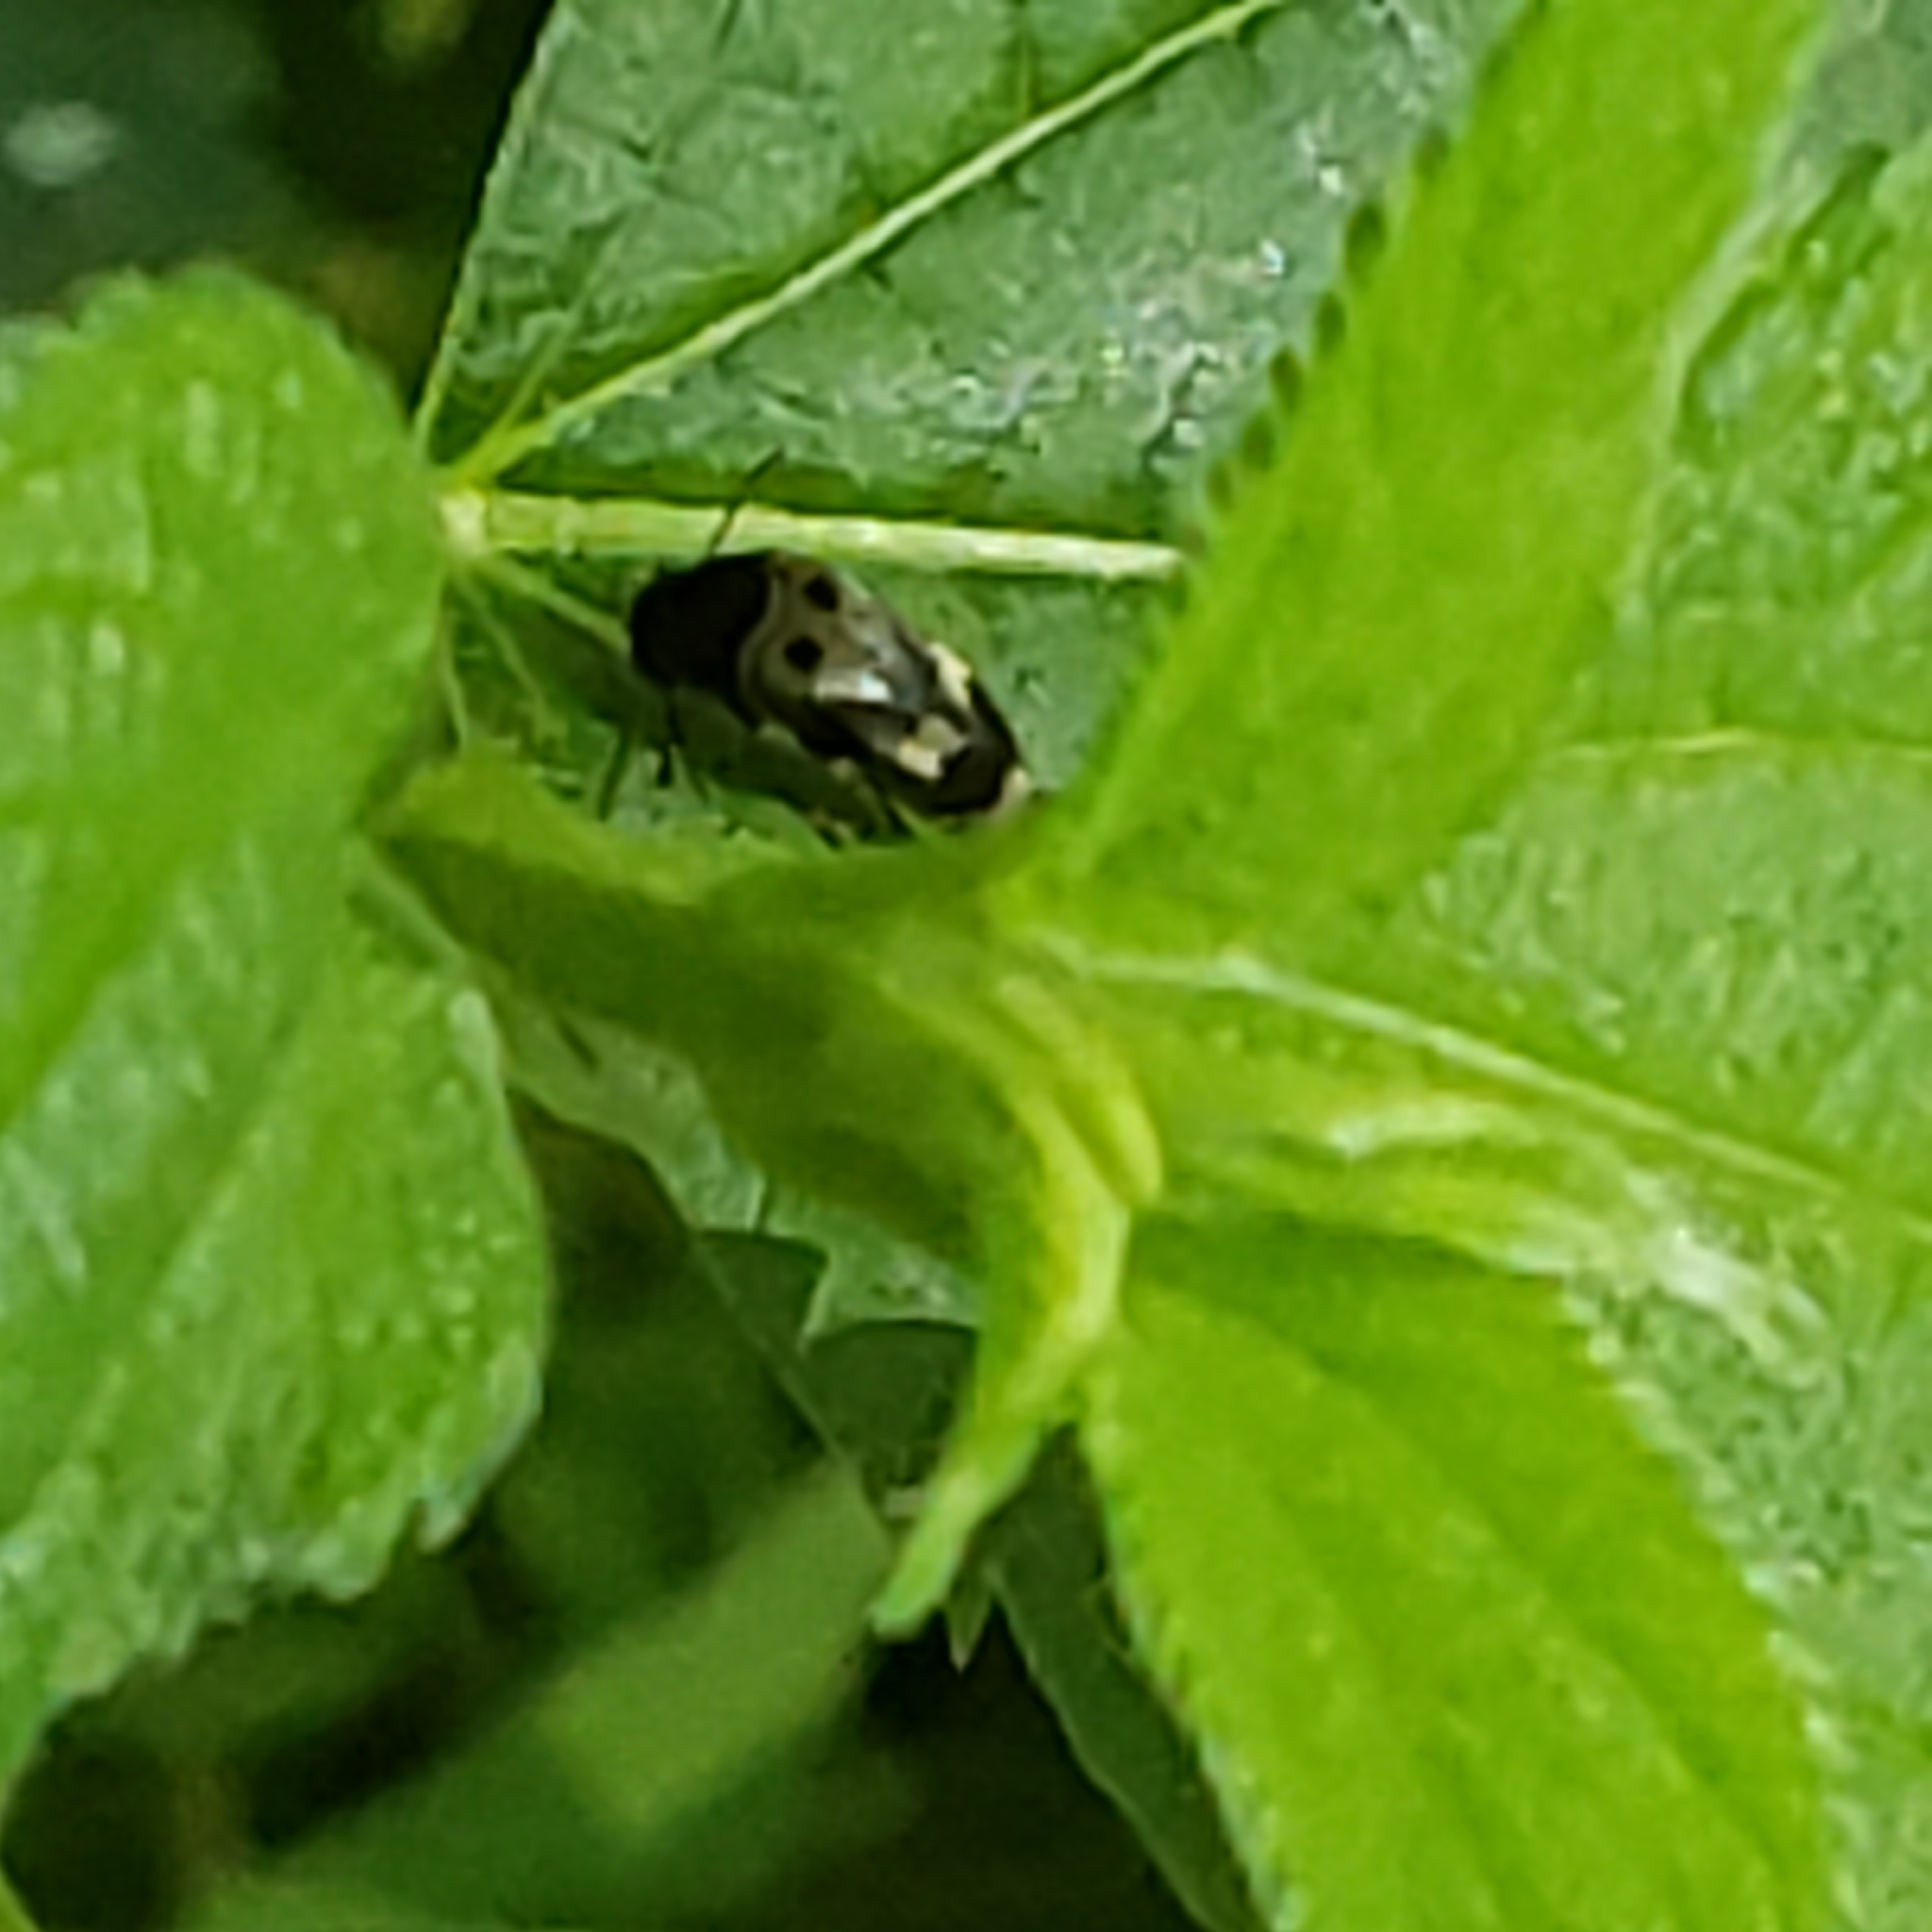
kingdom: Animalia
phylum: Arthropoda
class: Insecta
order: Coleoptera
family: Mordellidae
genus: Glipa
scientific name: Glipa oculata
